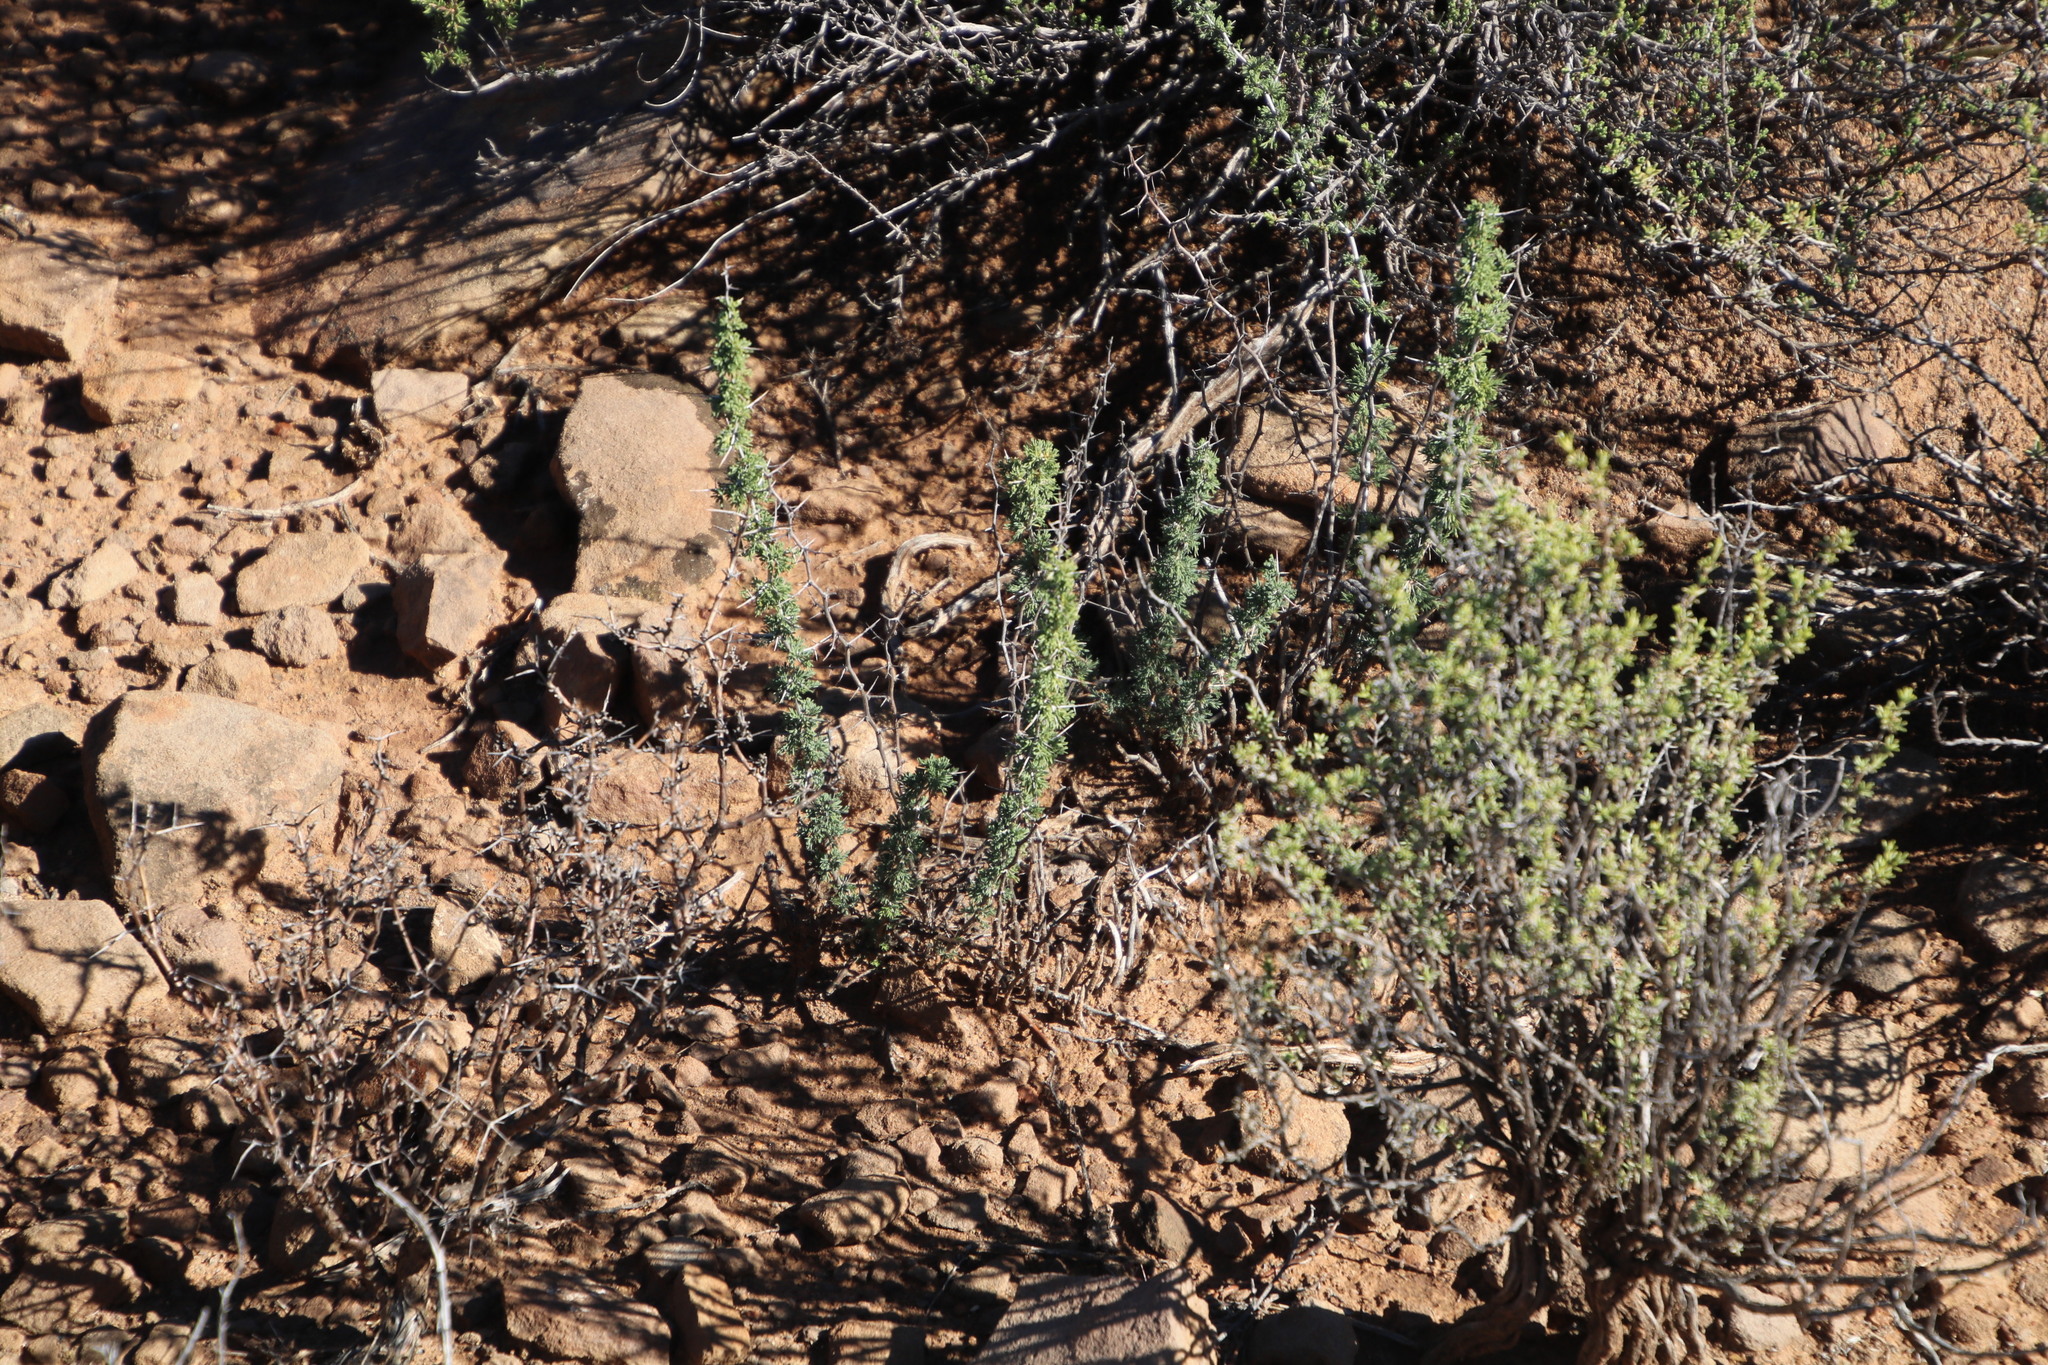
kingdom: Plantae
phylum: Tracheophyta
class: Liliopsida
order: Asparagales
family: Asparagaceae
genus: Asparagus
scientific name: Asparagus suaveolens
